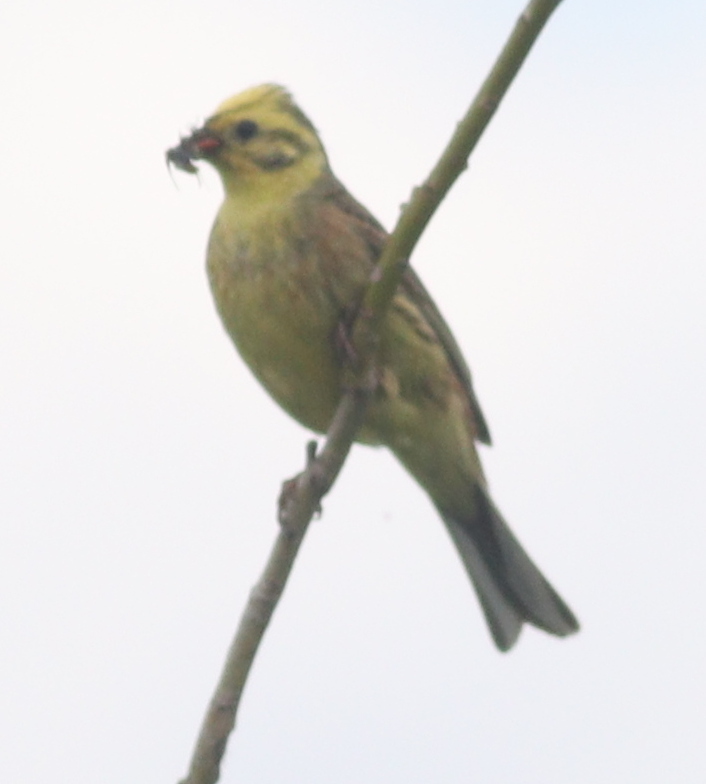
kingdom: Animalia
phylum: Chordata
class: Aves
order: Passeriformes
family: Emberizidae
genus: Emberiza
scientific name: Emberiza citrinella
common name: Yellowhammer
